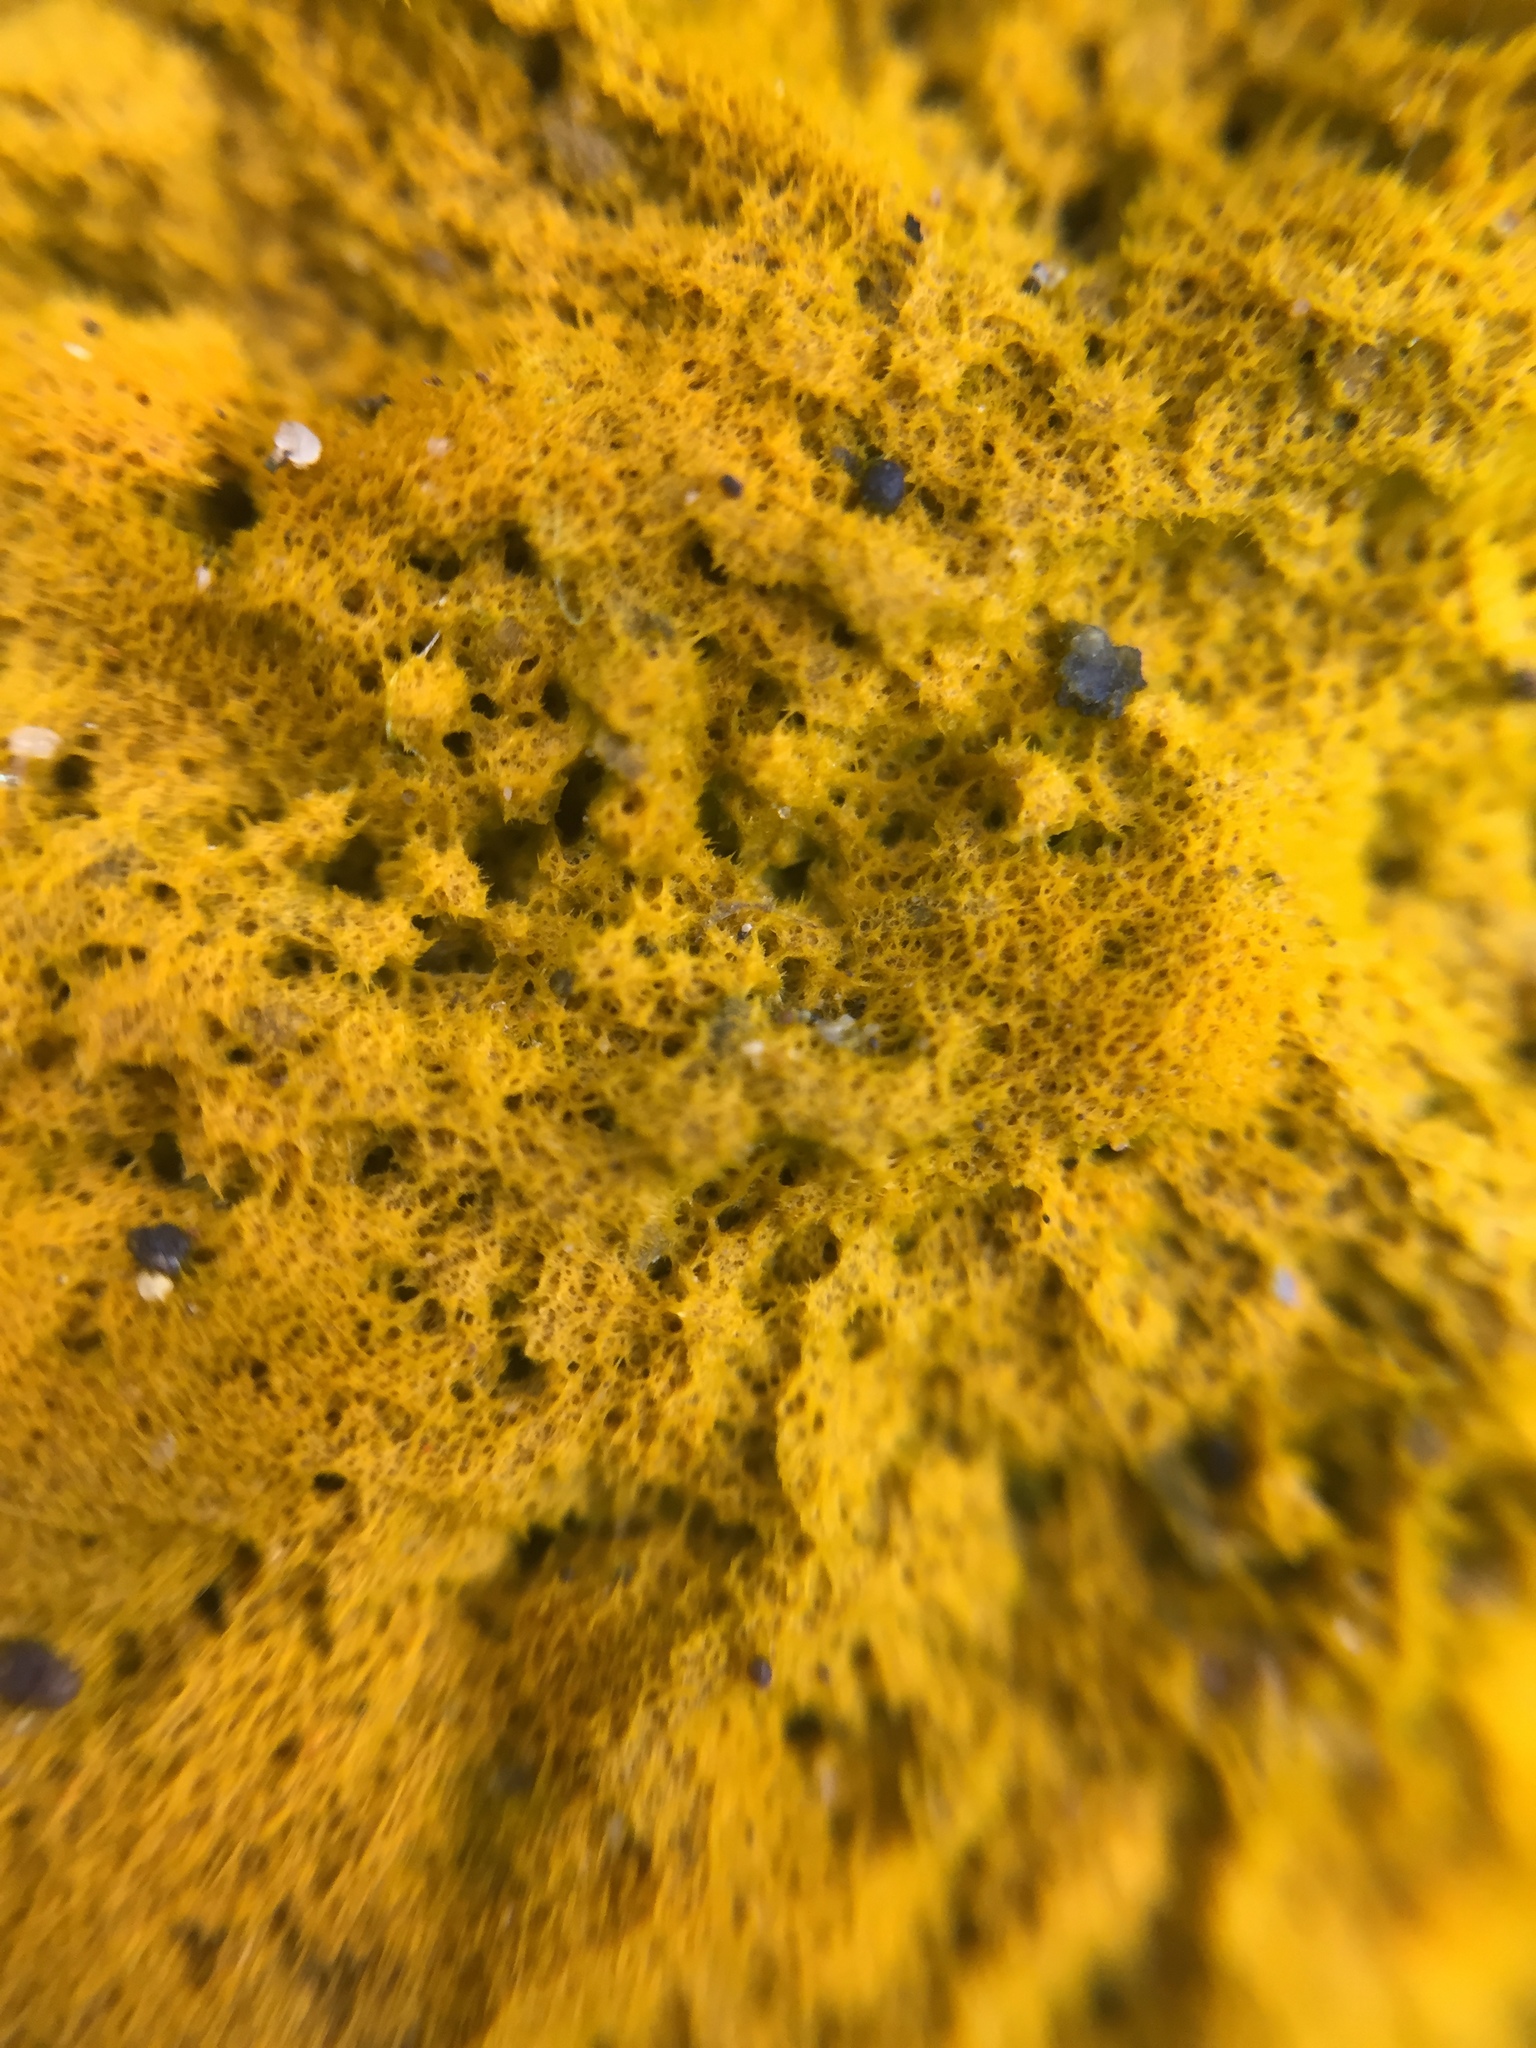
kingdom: Plantae
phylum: Chlorophyta
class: Ulvophyceae
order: Trentepohliales
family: Trentepohliaceae
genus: Trentepohlia
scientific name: Trentepohlia aurea
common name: Orange rock hair
